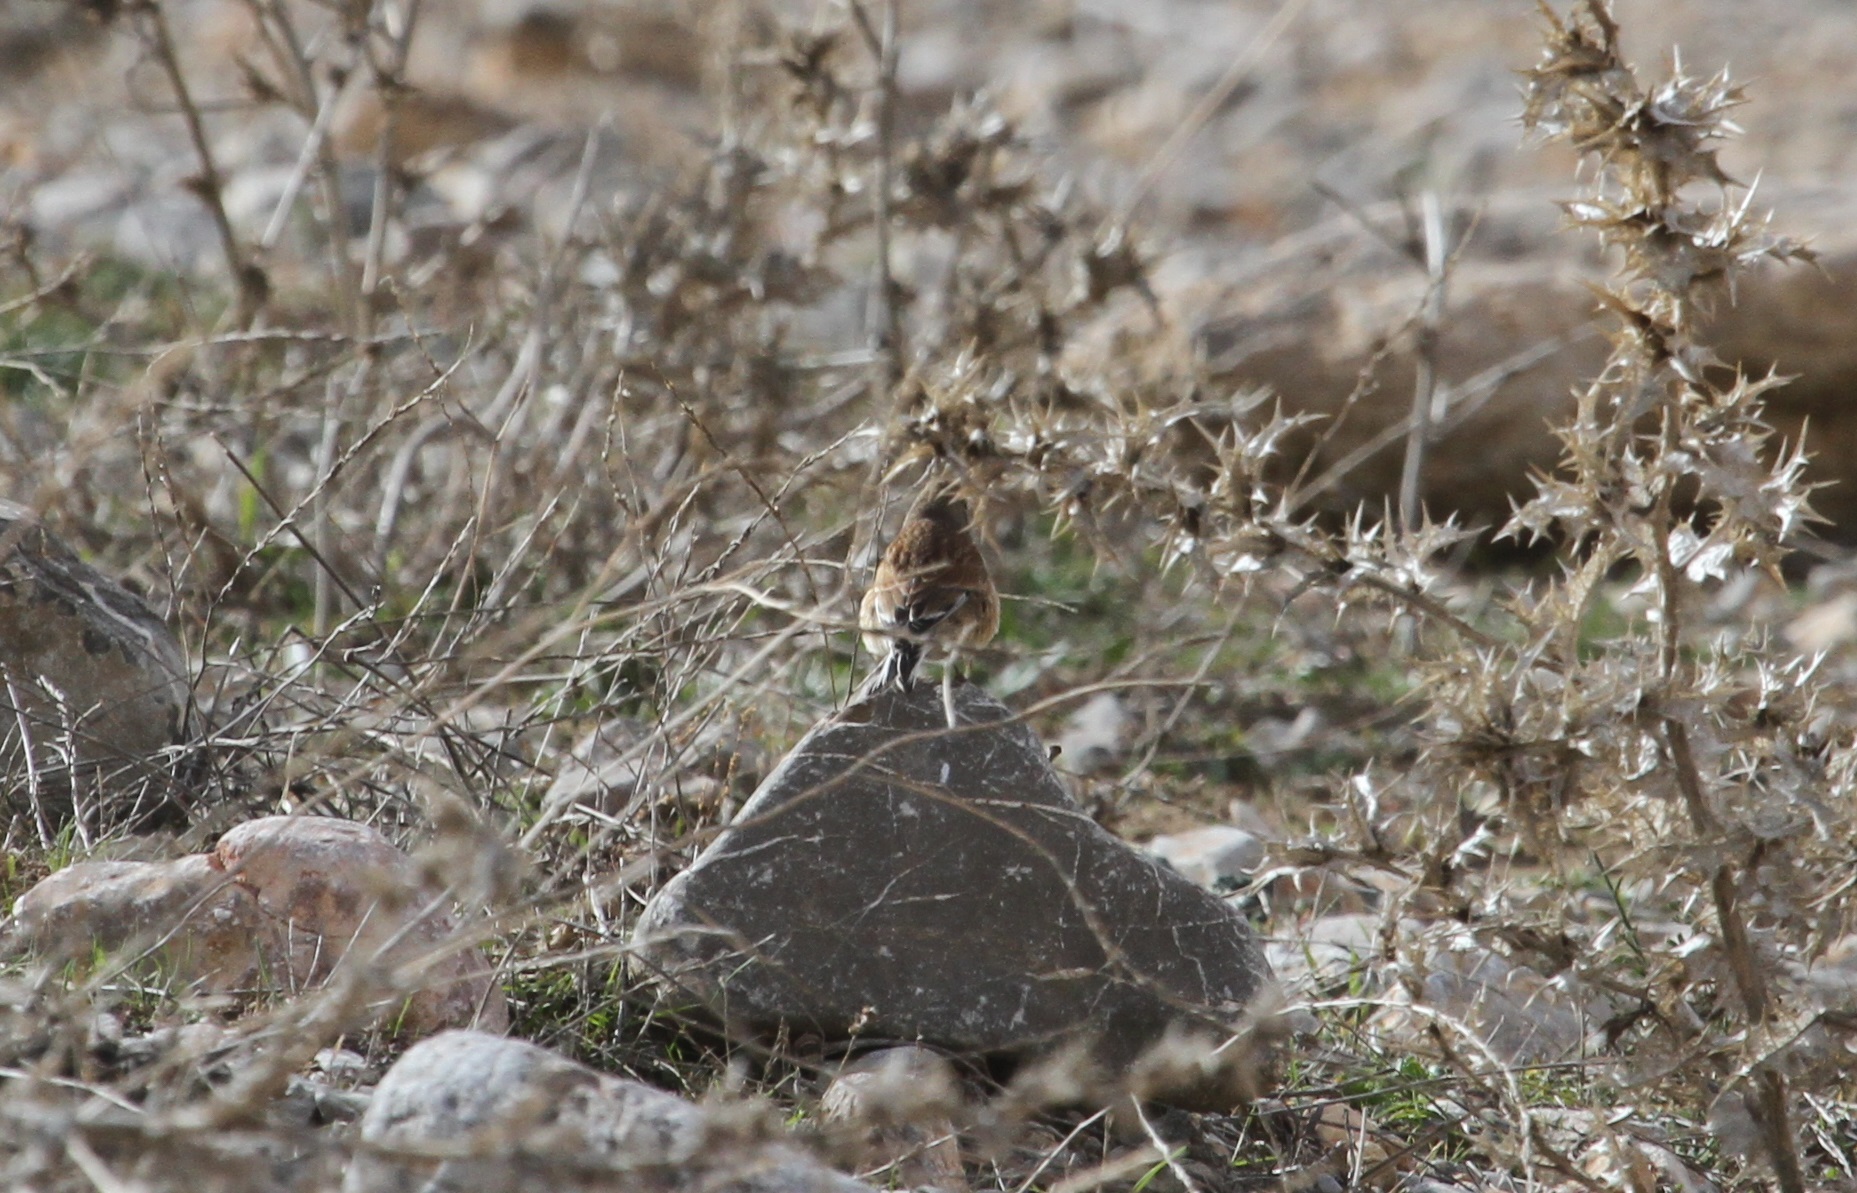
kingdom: Animalia
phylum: Chordata
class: Aves
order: Passeriformes
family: Fringillidae
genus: Linaria
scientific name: Linaria cannabina
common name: Common linnet
